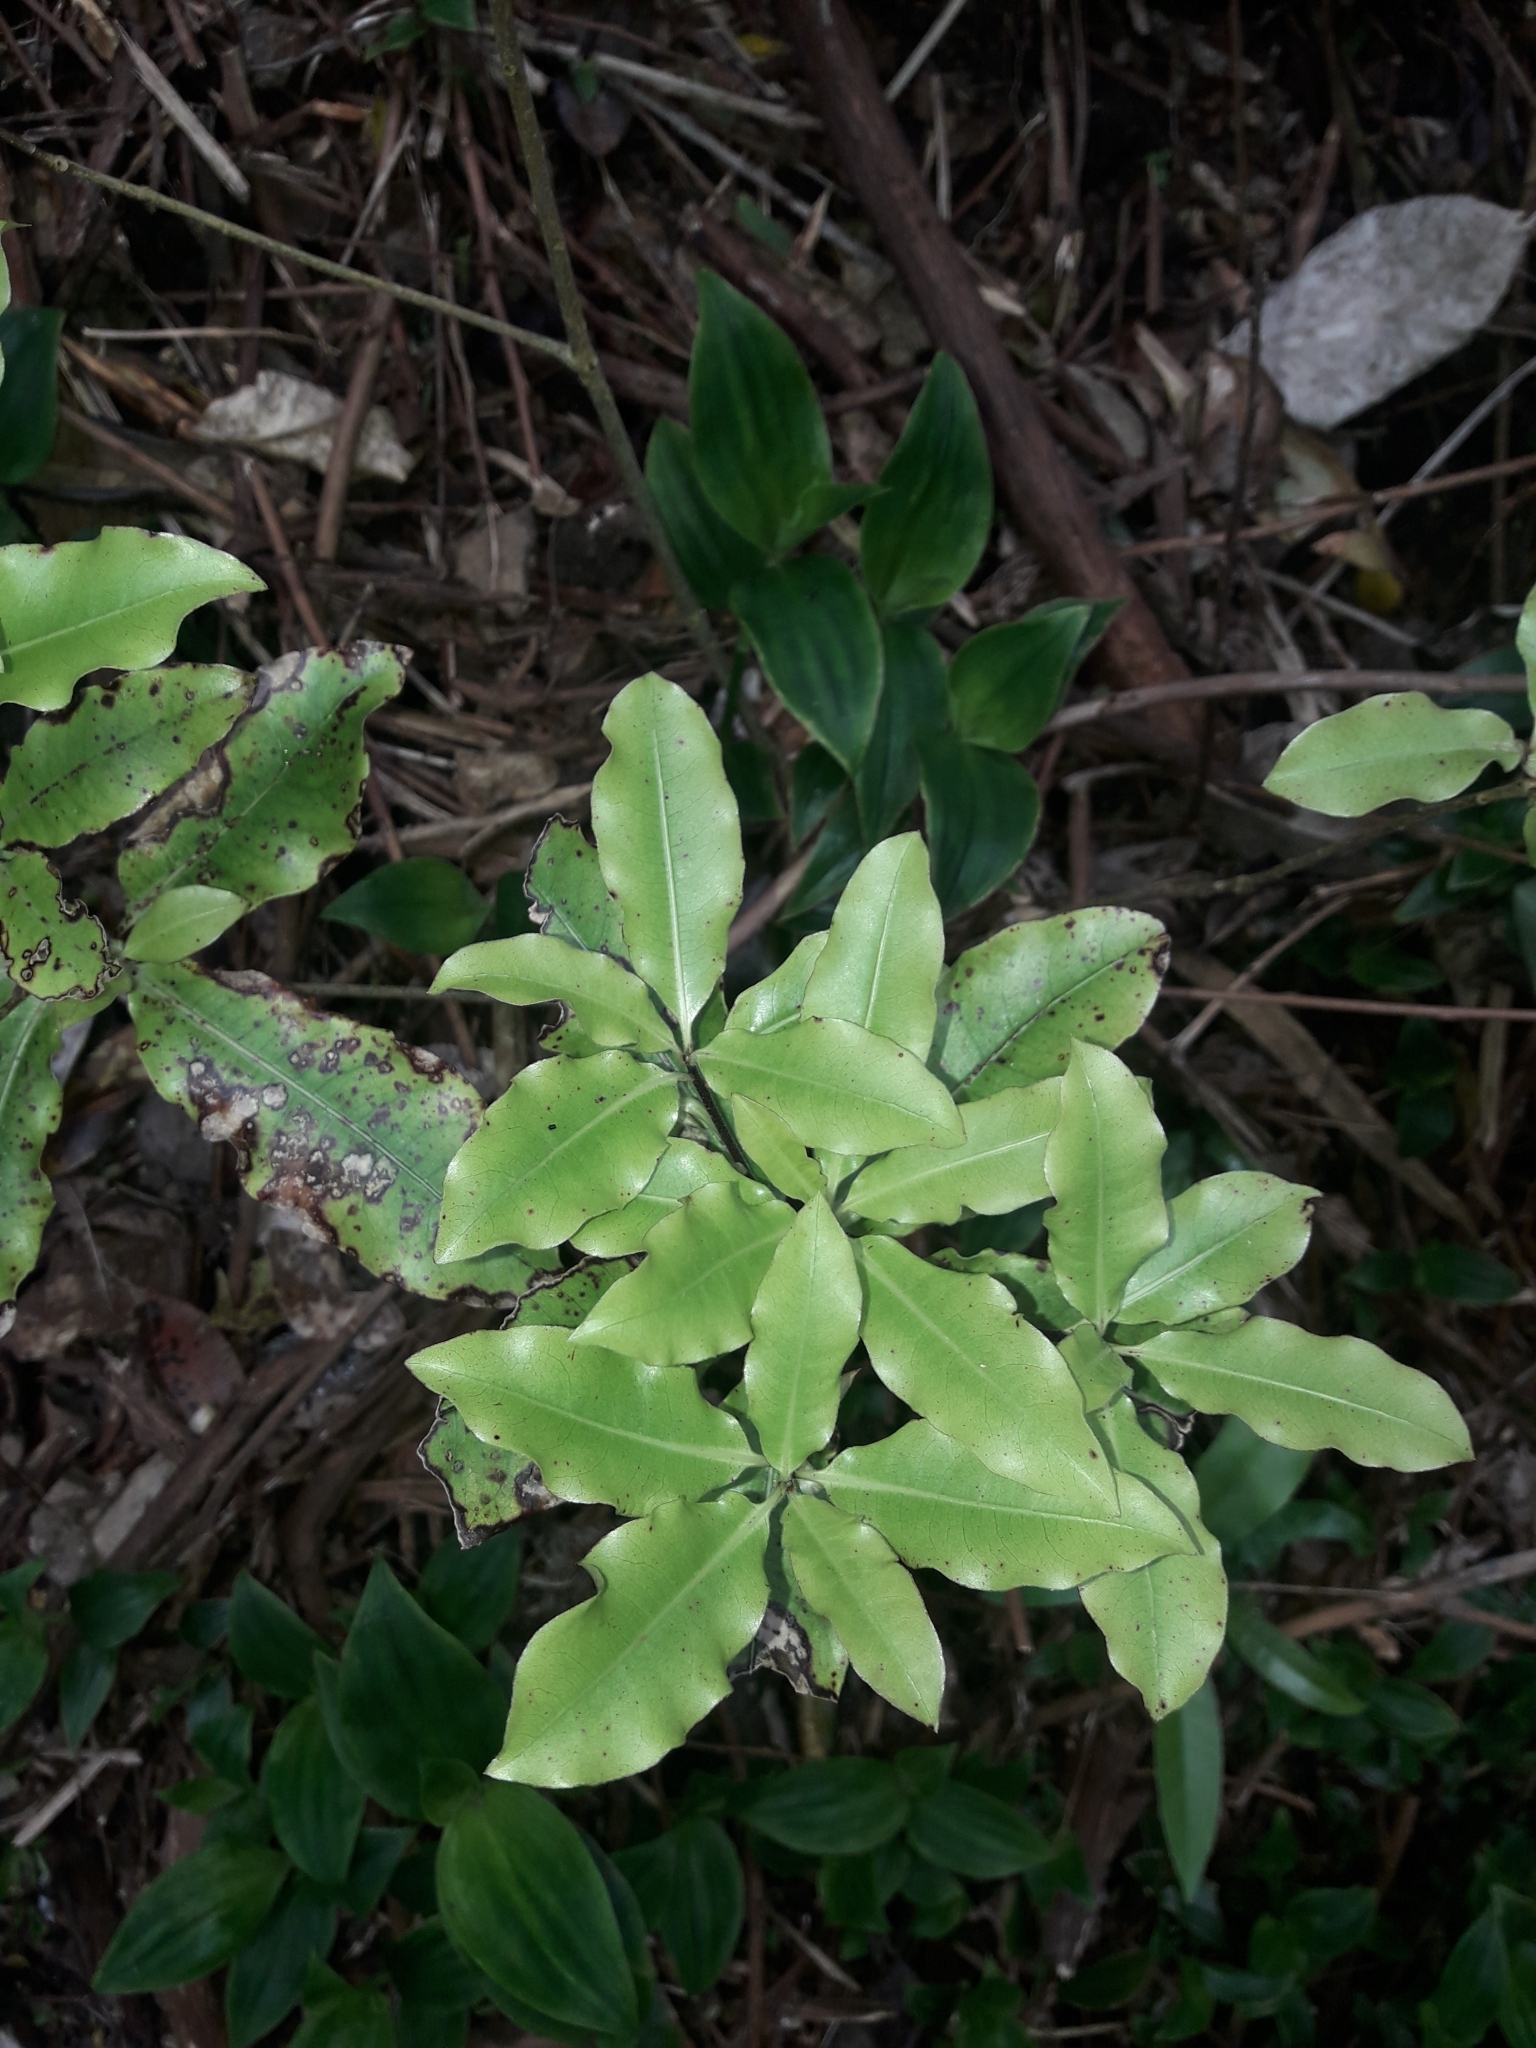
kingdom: Plantae
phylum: Tracheophyta
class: Magnoliopsida
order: Apiales
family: Pittosporaceae
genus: Pittosporum
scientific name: Pittosporum eugenioides
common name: Lemonwood
